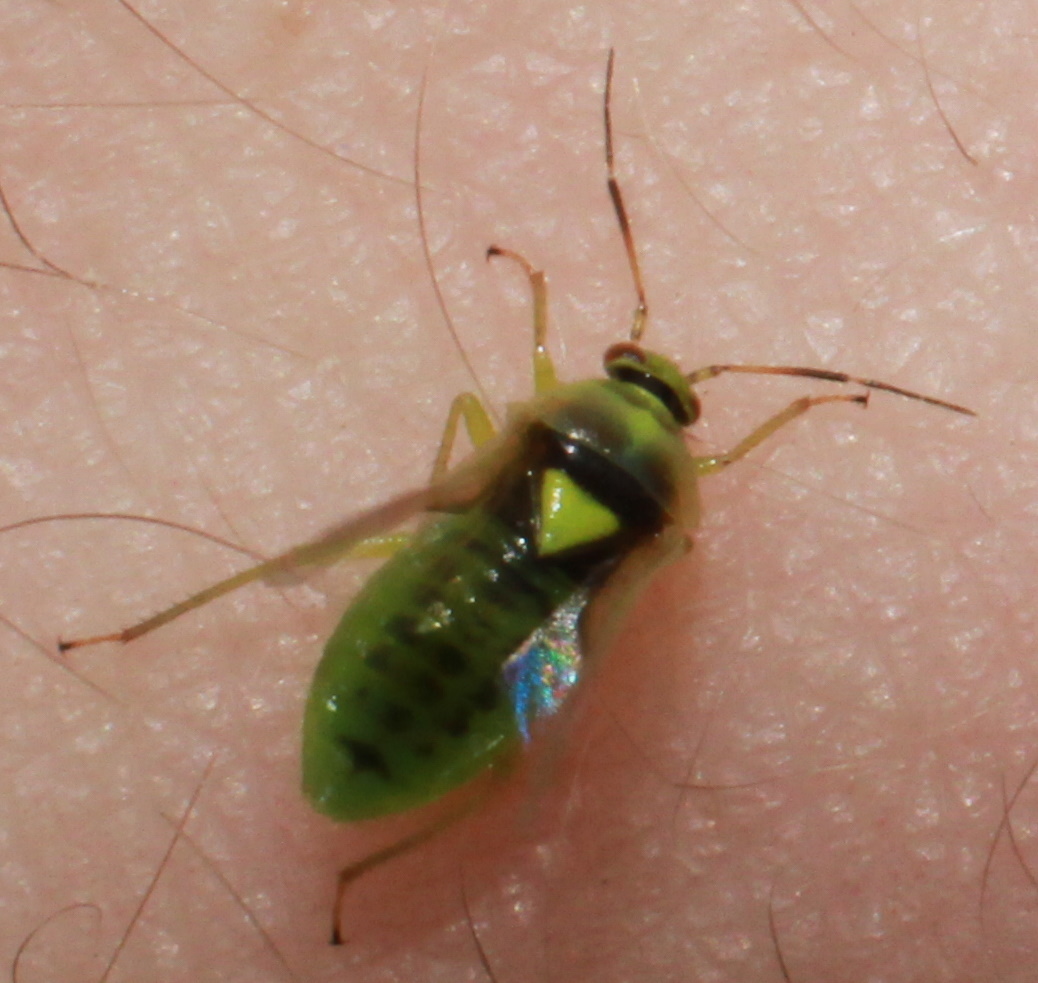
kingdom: Animalia
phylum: Arthropoda
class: Insecta
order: Hemiptera
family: Miridae
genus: Orthops
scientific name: Orthops campestris
